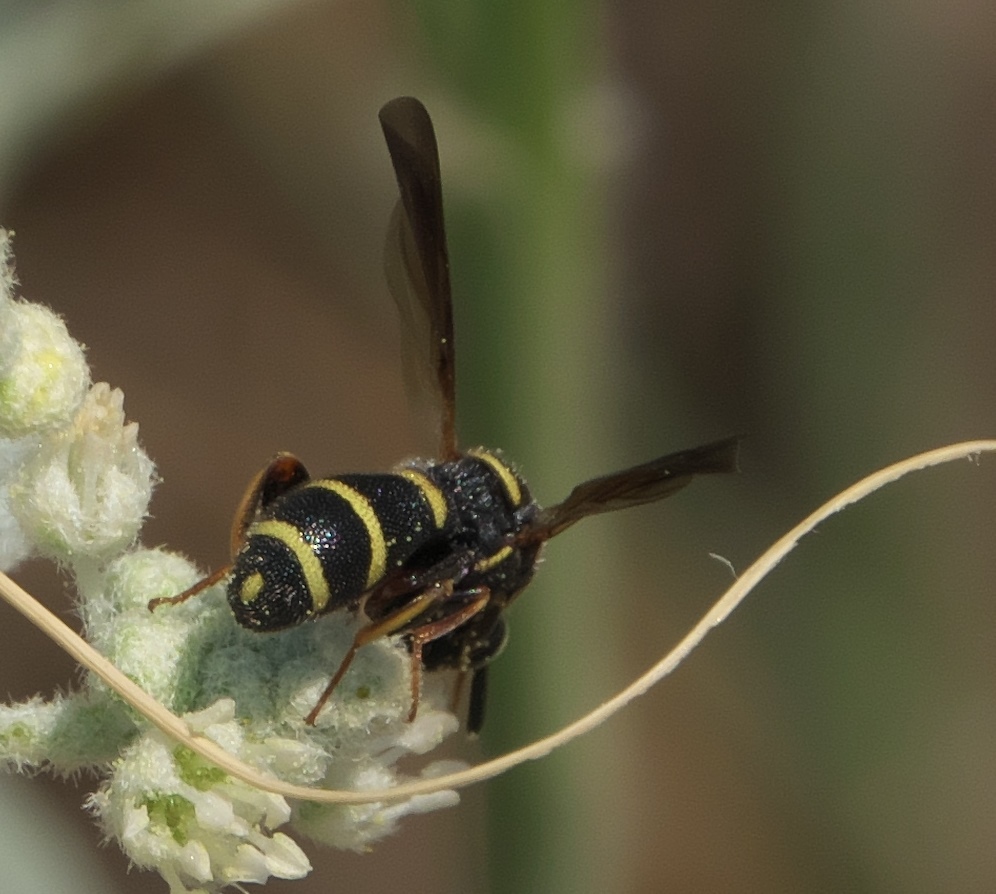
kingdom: Animalia
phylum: Arthropoda
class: Insecta
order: Hymenoptera
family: Leucospidae
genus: Leucospis
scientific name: Leucospis affinis
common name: Wasp
